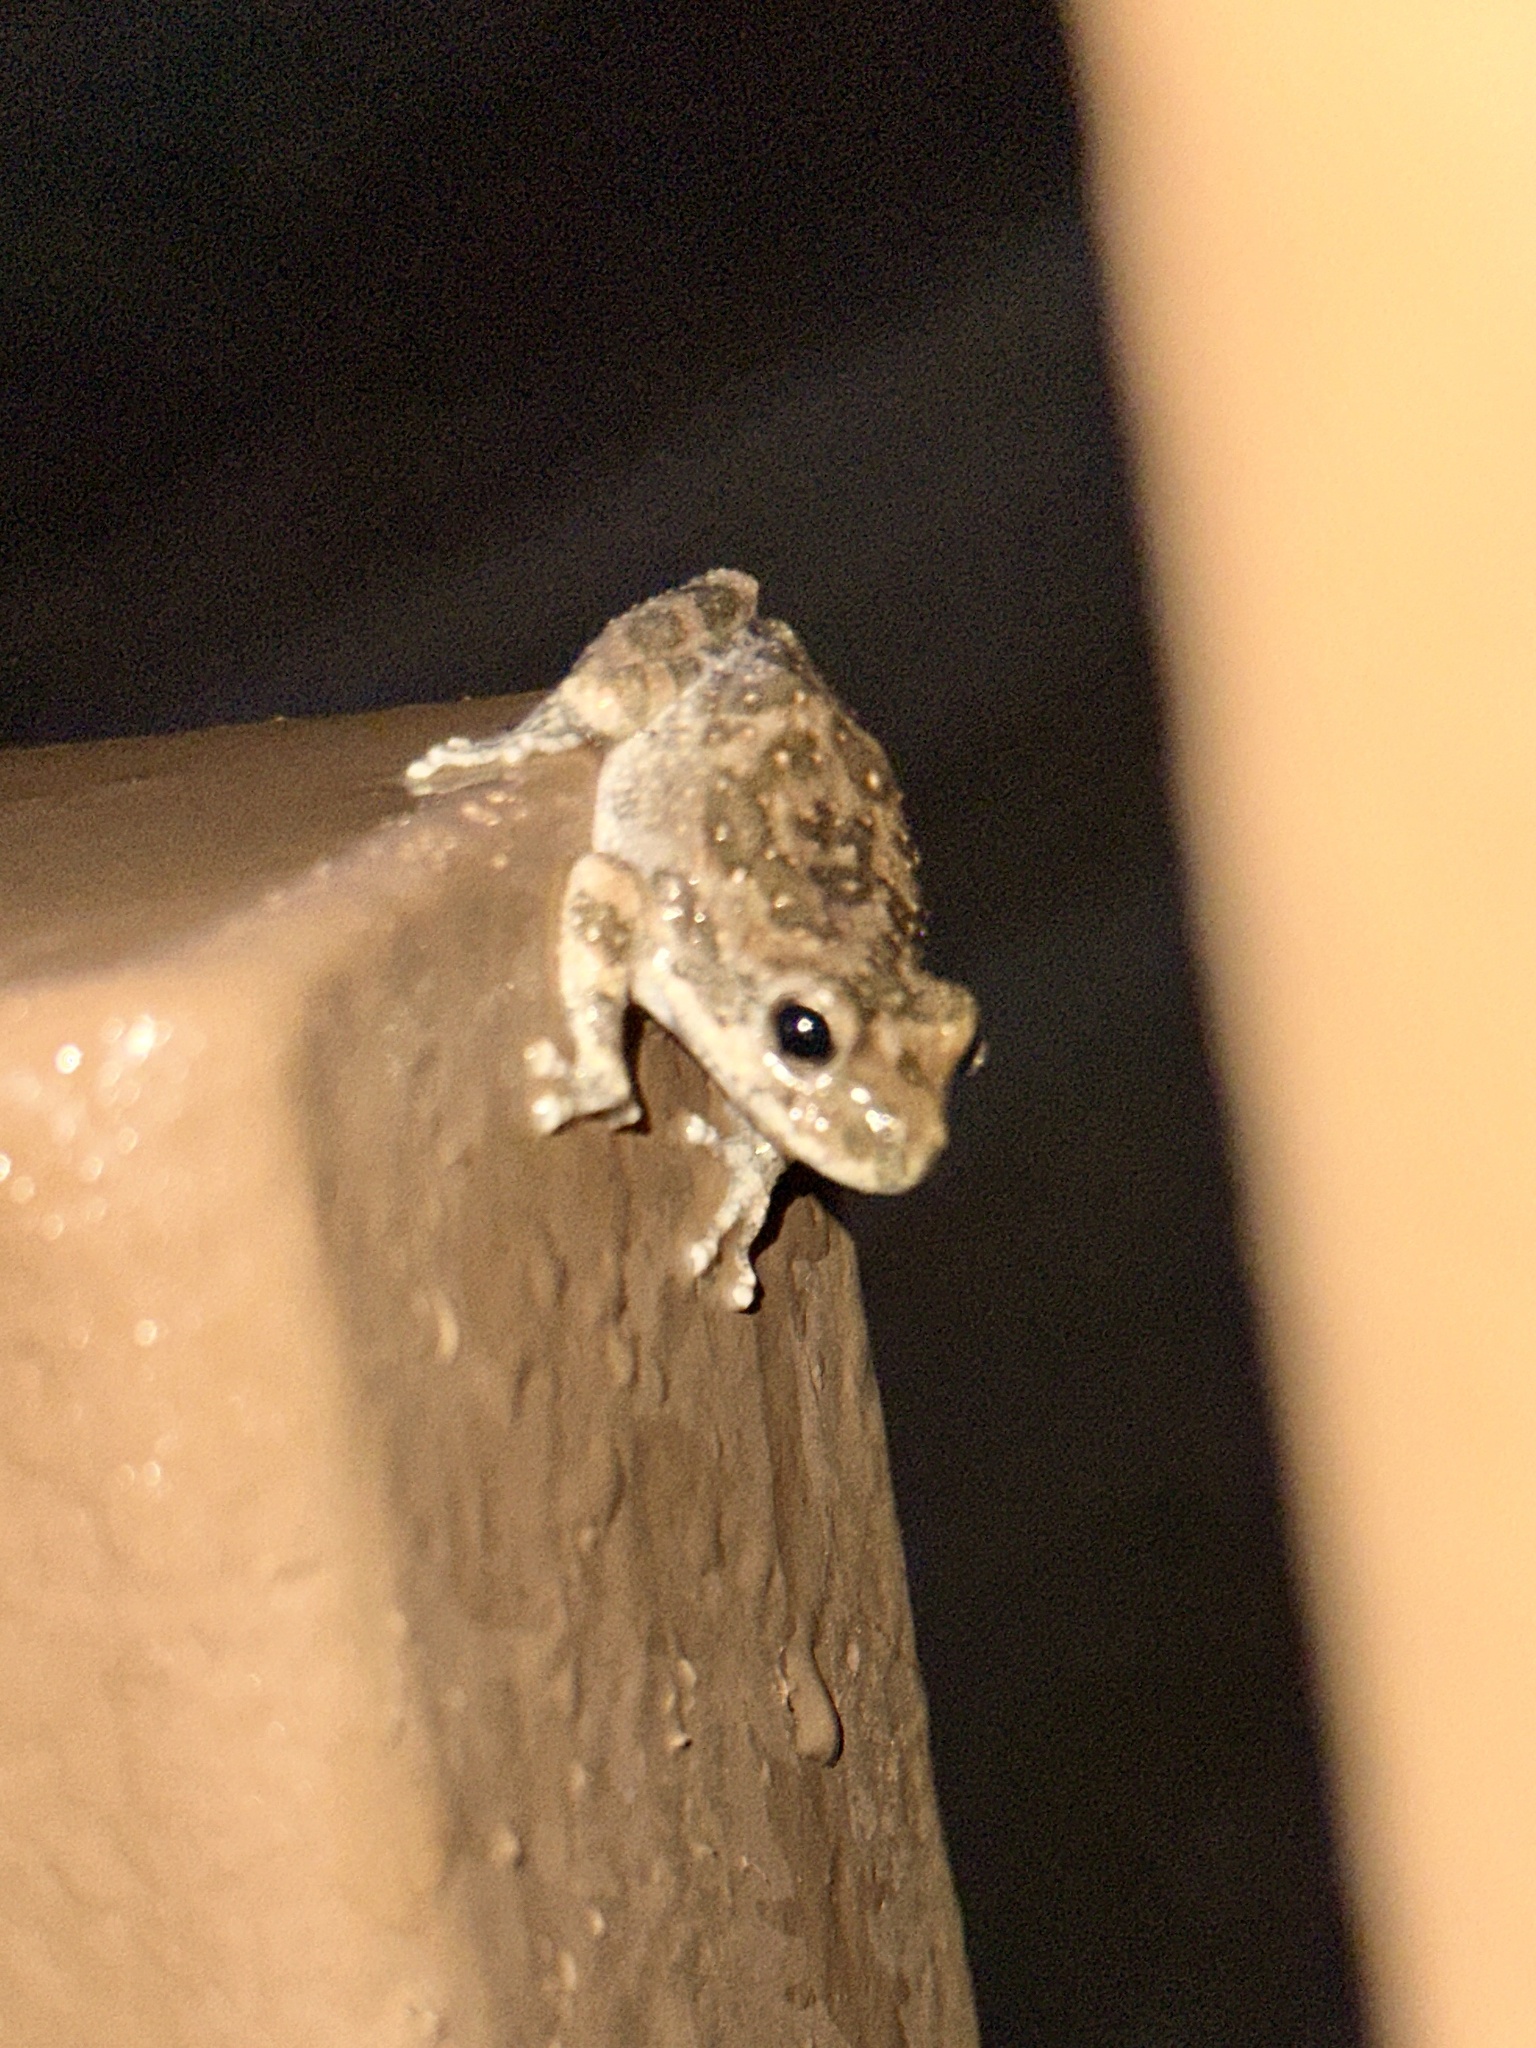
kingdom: Animalia
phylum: Chordata
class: Amphibia
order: Anura
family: Hylidae
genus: Pseudacris
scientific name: Pseudacris cadaverina
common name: California chorus frog
